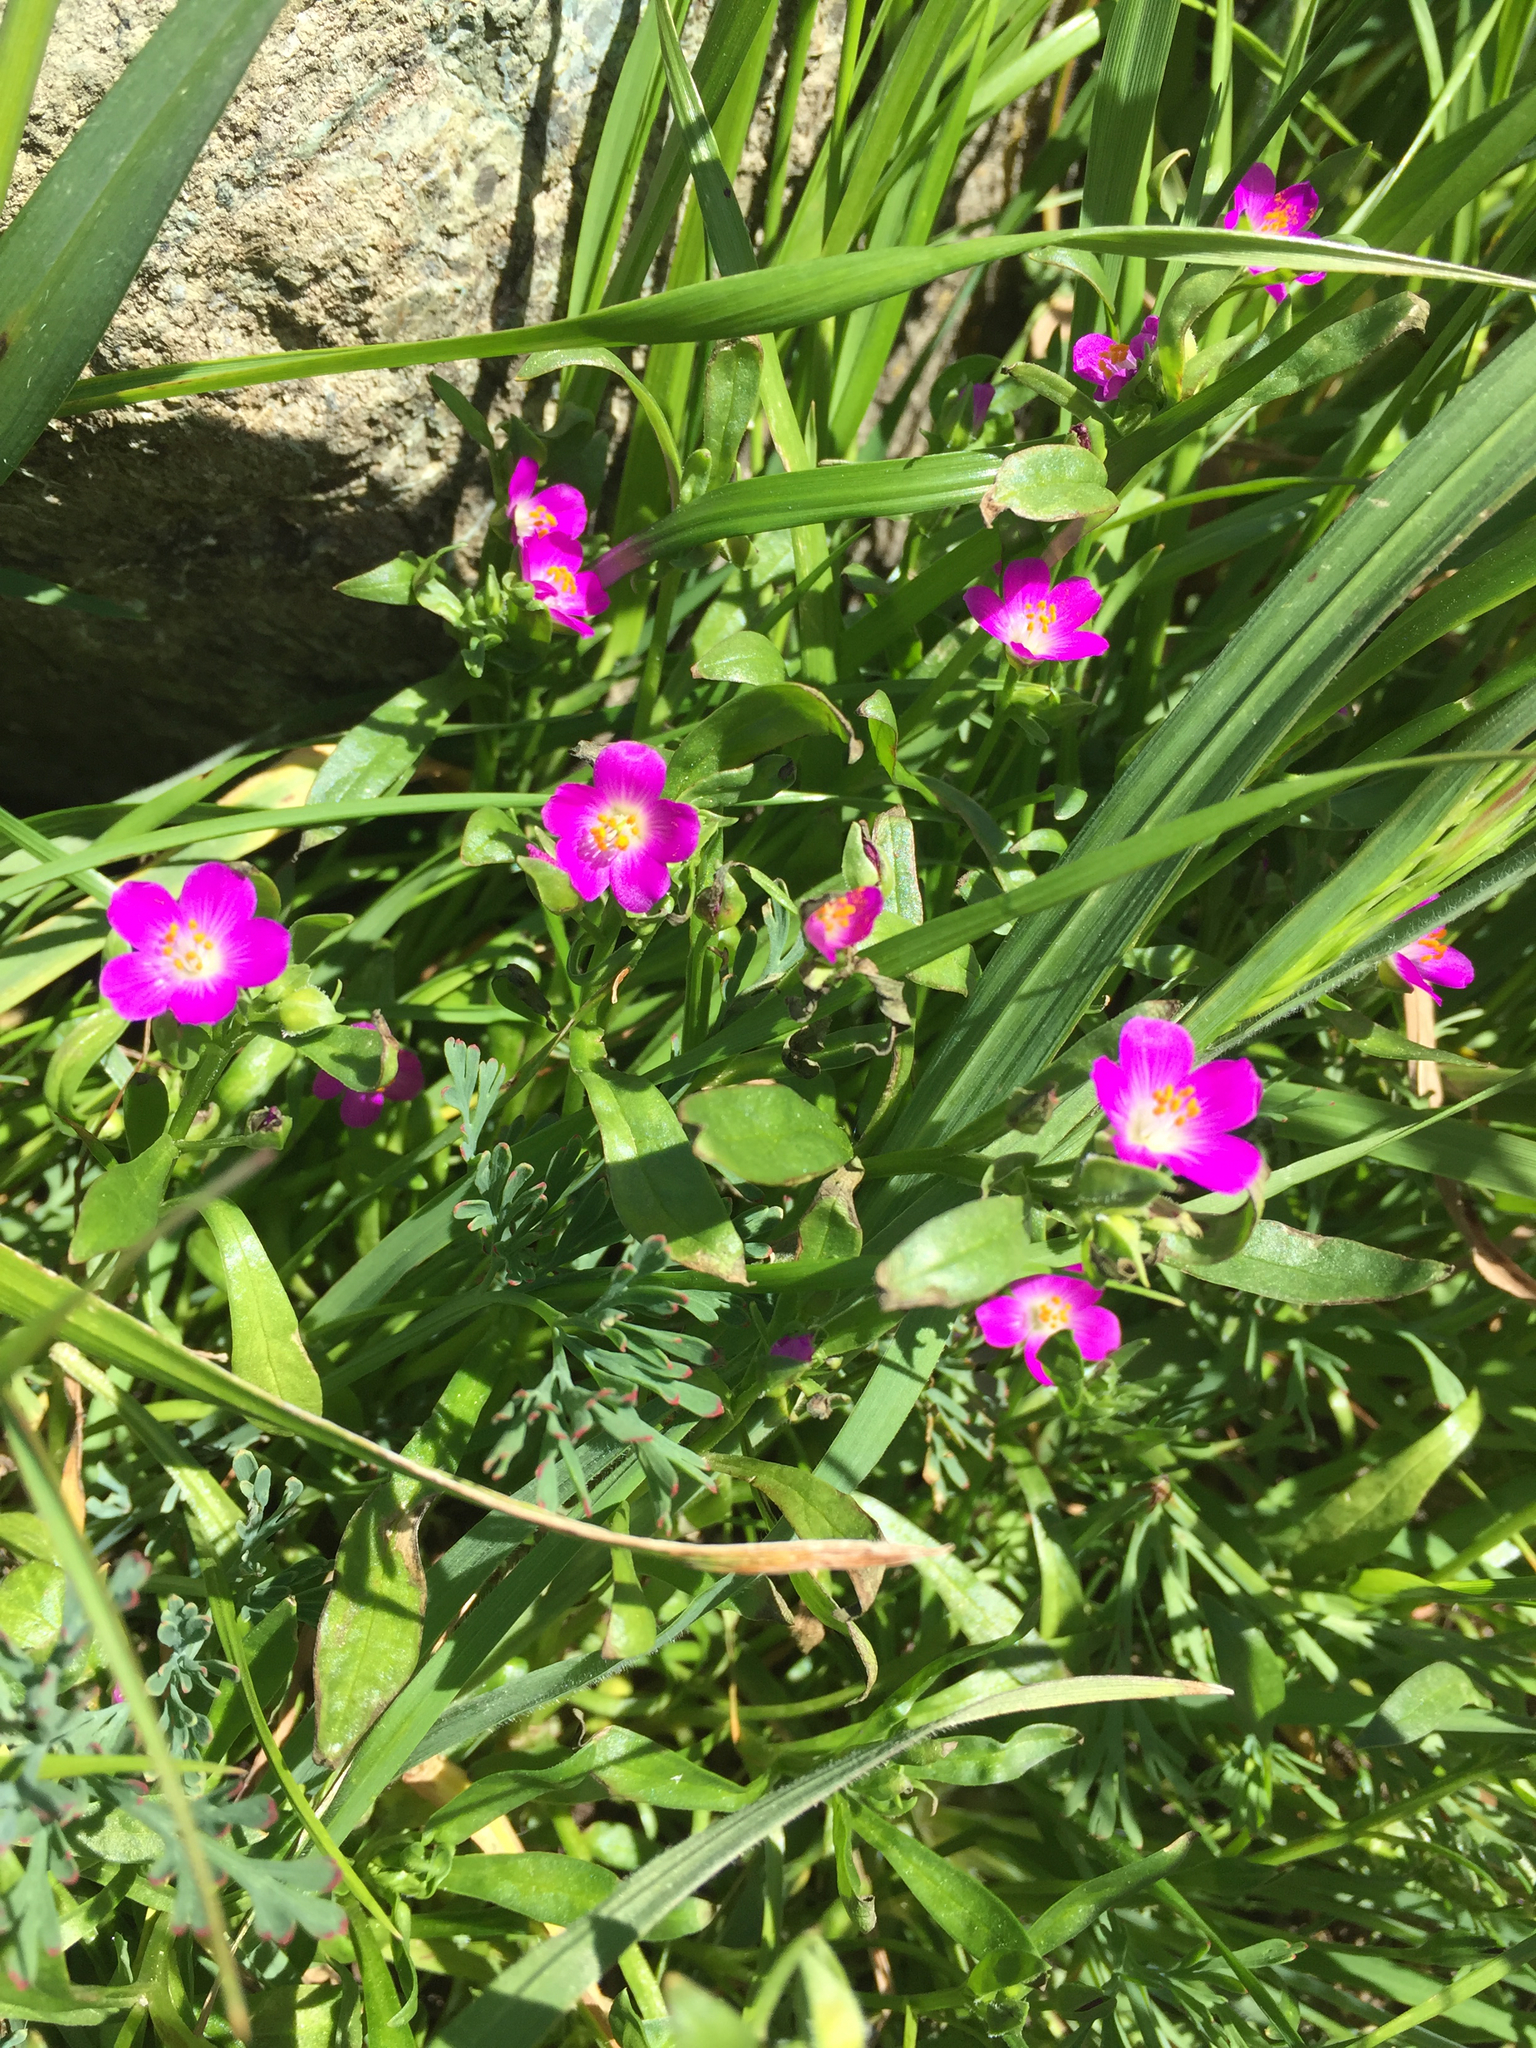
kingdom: Plantae
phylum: Tracheophyta
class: Magnoliopsida
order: Caryophyllales
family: Montiaceae
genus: Calandrinia
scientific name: Calandrinia menziesii
